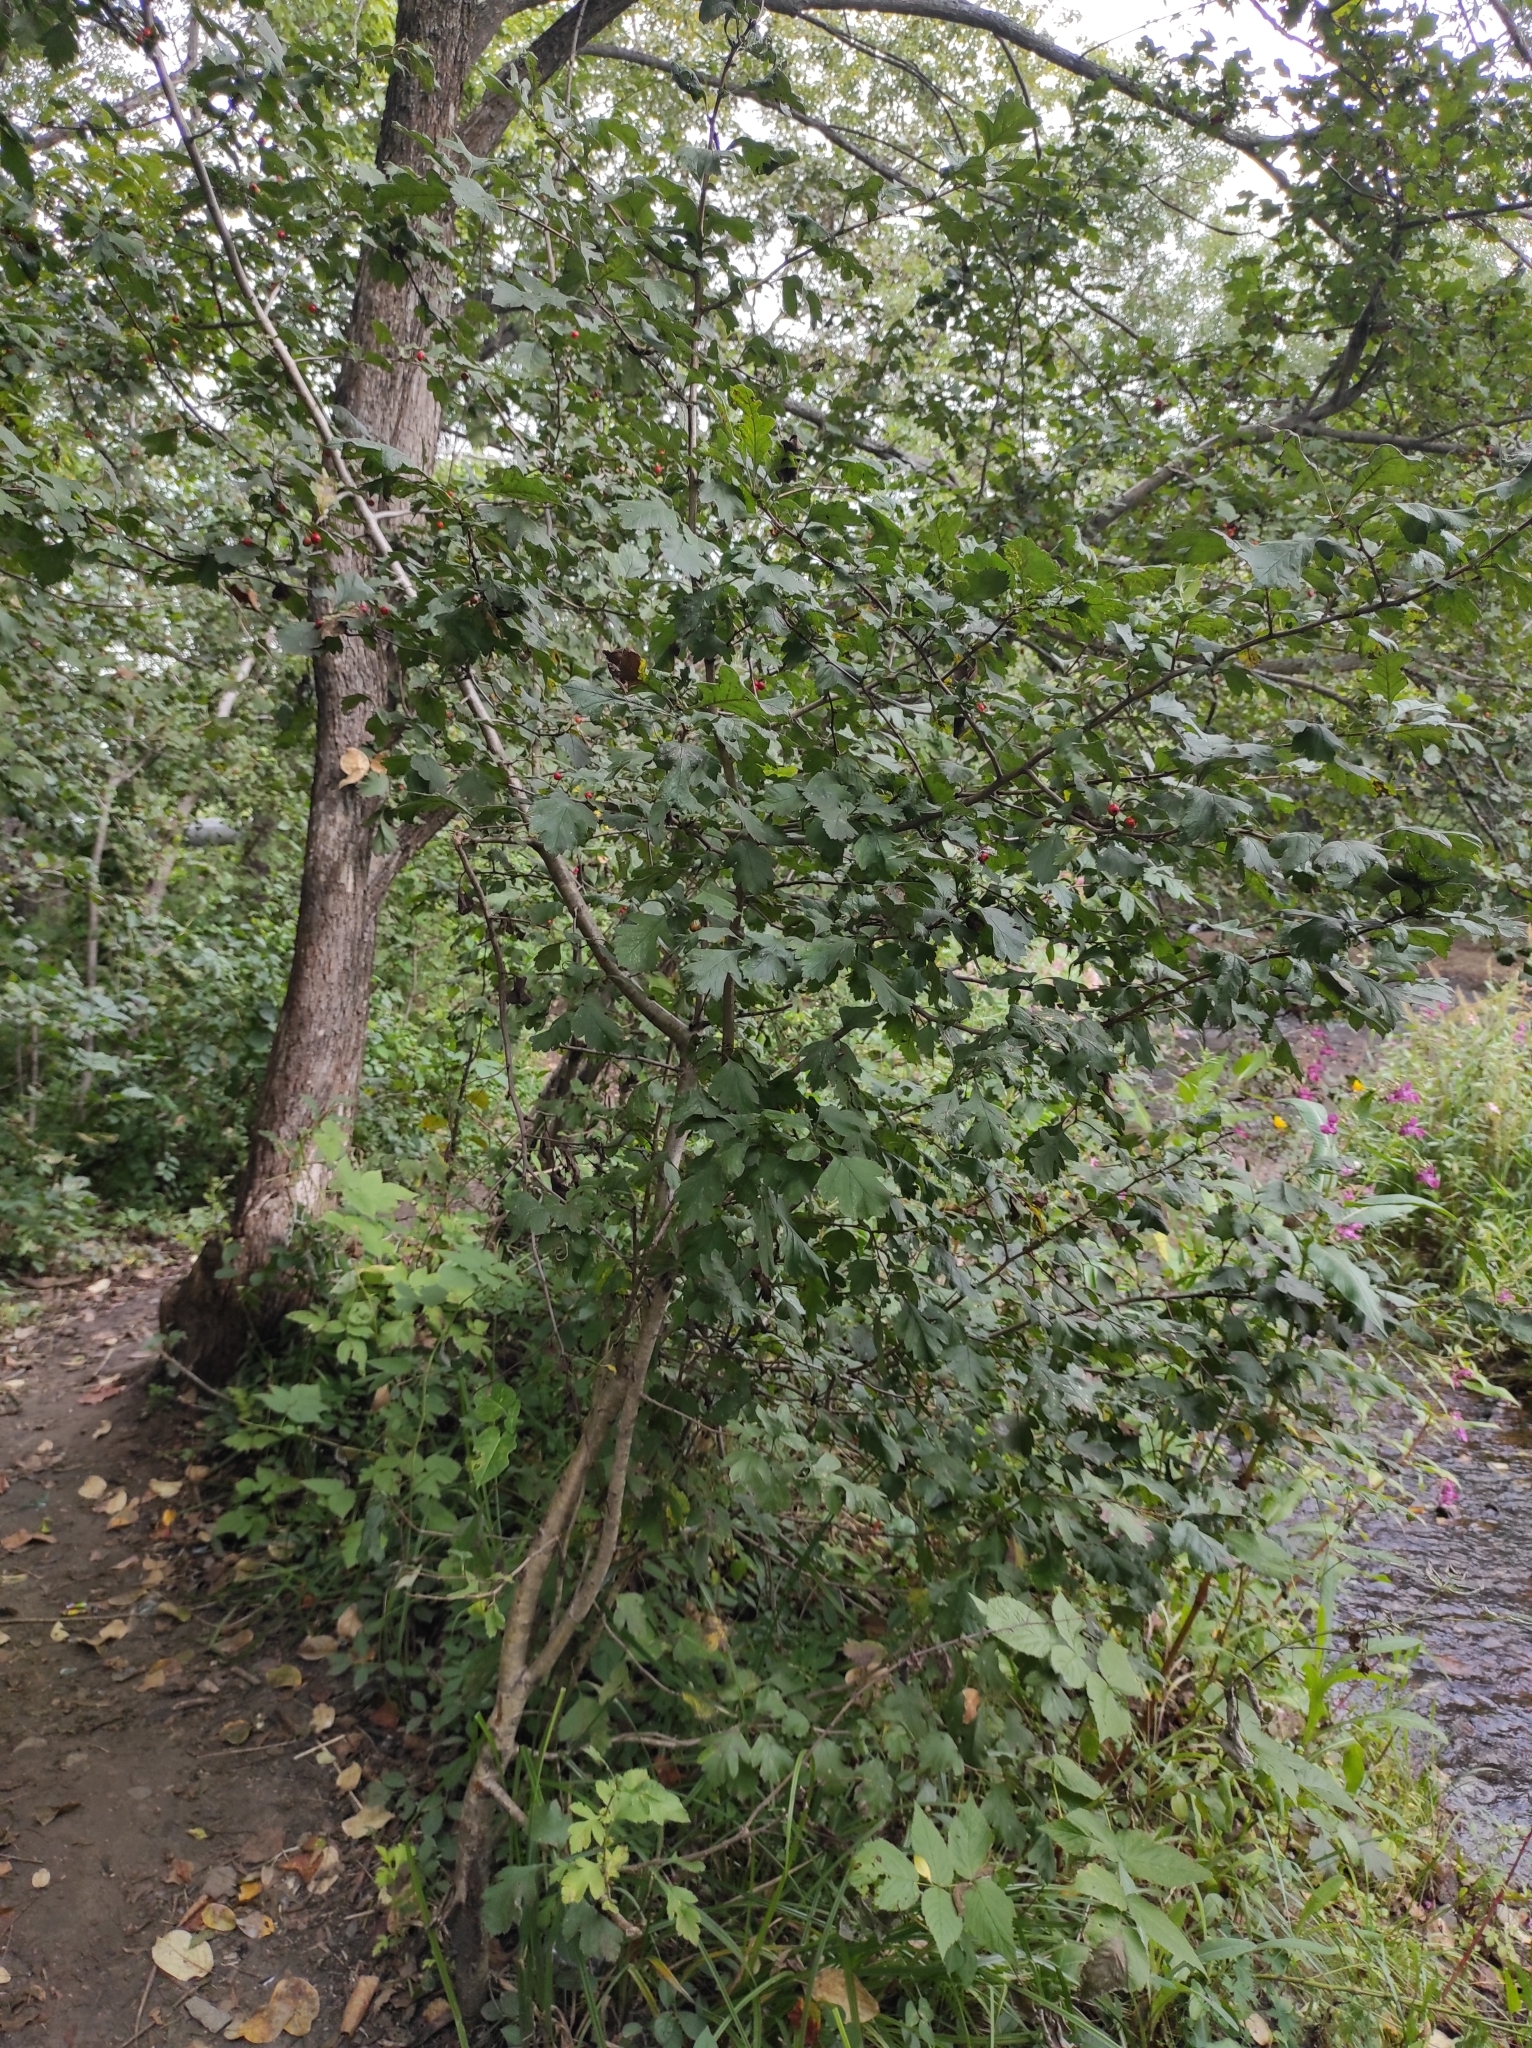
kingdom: Plantae
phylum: Tracheophyta
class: Magnoliopsida
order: Rosales
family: Rosaceae
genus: Crataegus
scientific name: Crataegus maximowiczii
